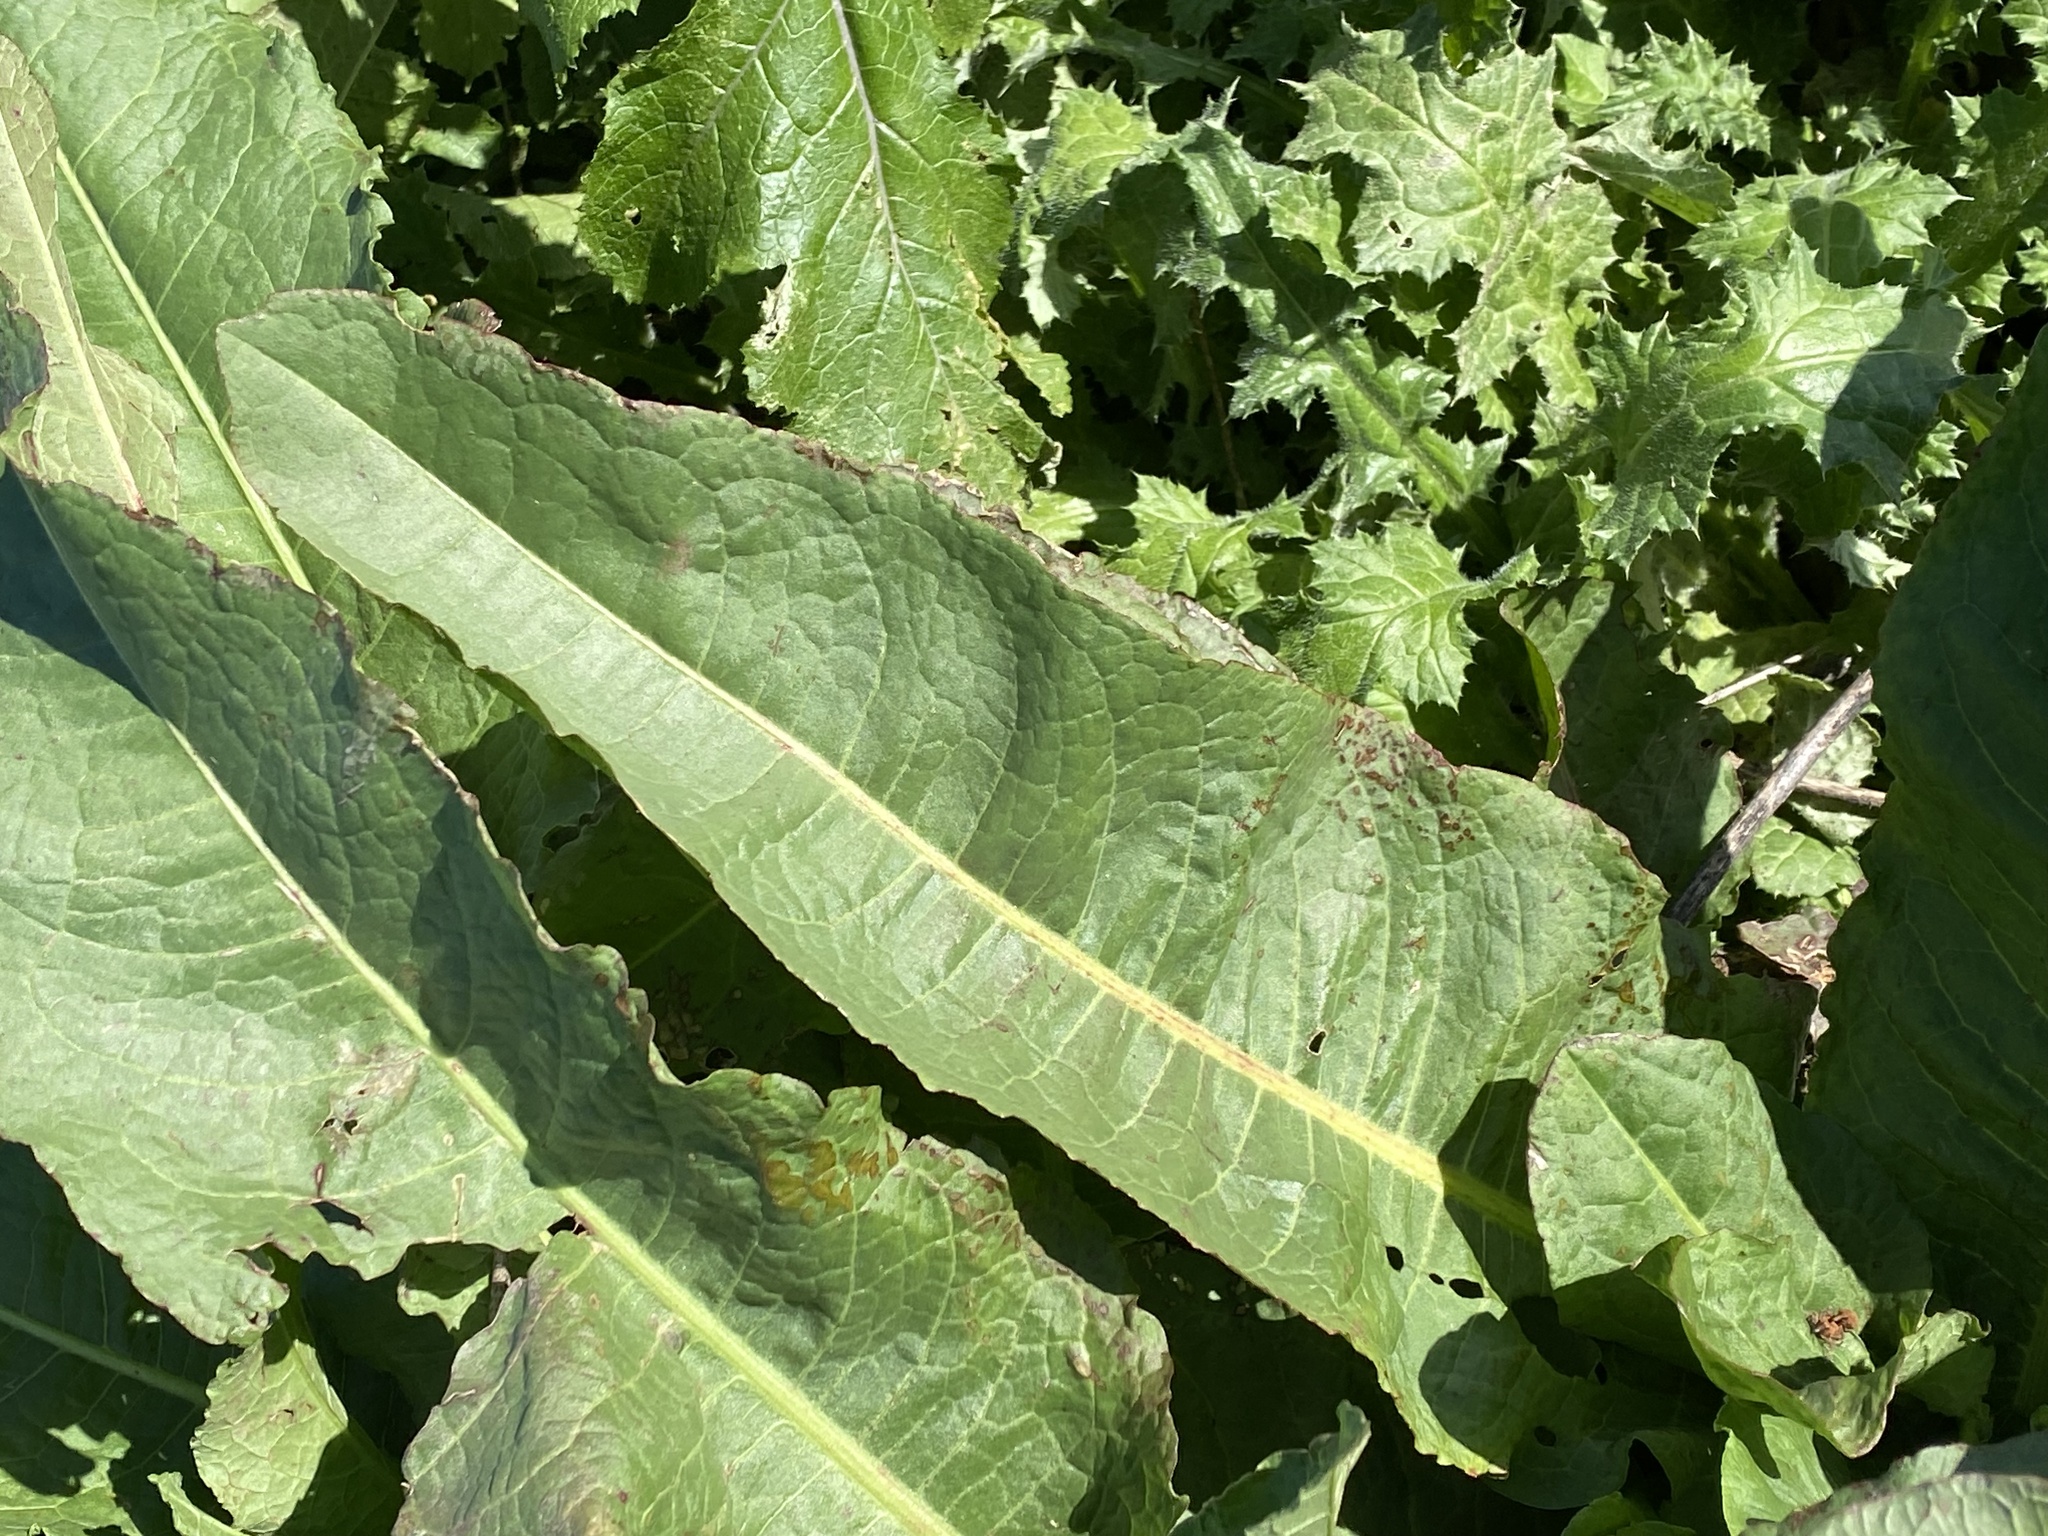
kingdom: Plantae
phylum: Tracheophyta
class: Magnoliopsida
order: Caryophyllales
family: Polygonaceae
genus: Rumex
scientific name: Rumex obtusifolius
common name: Bitter dock
